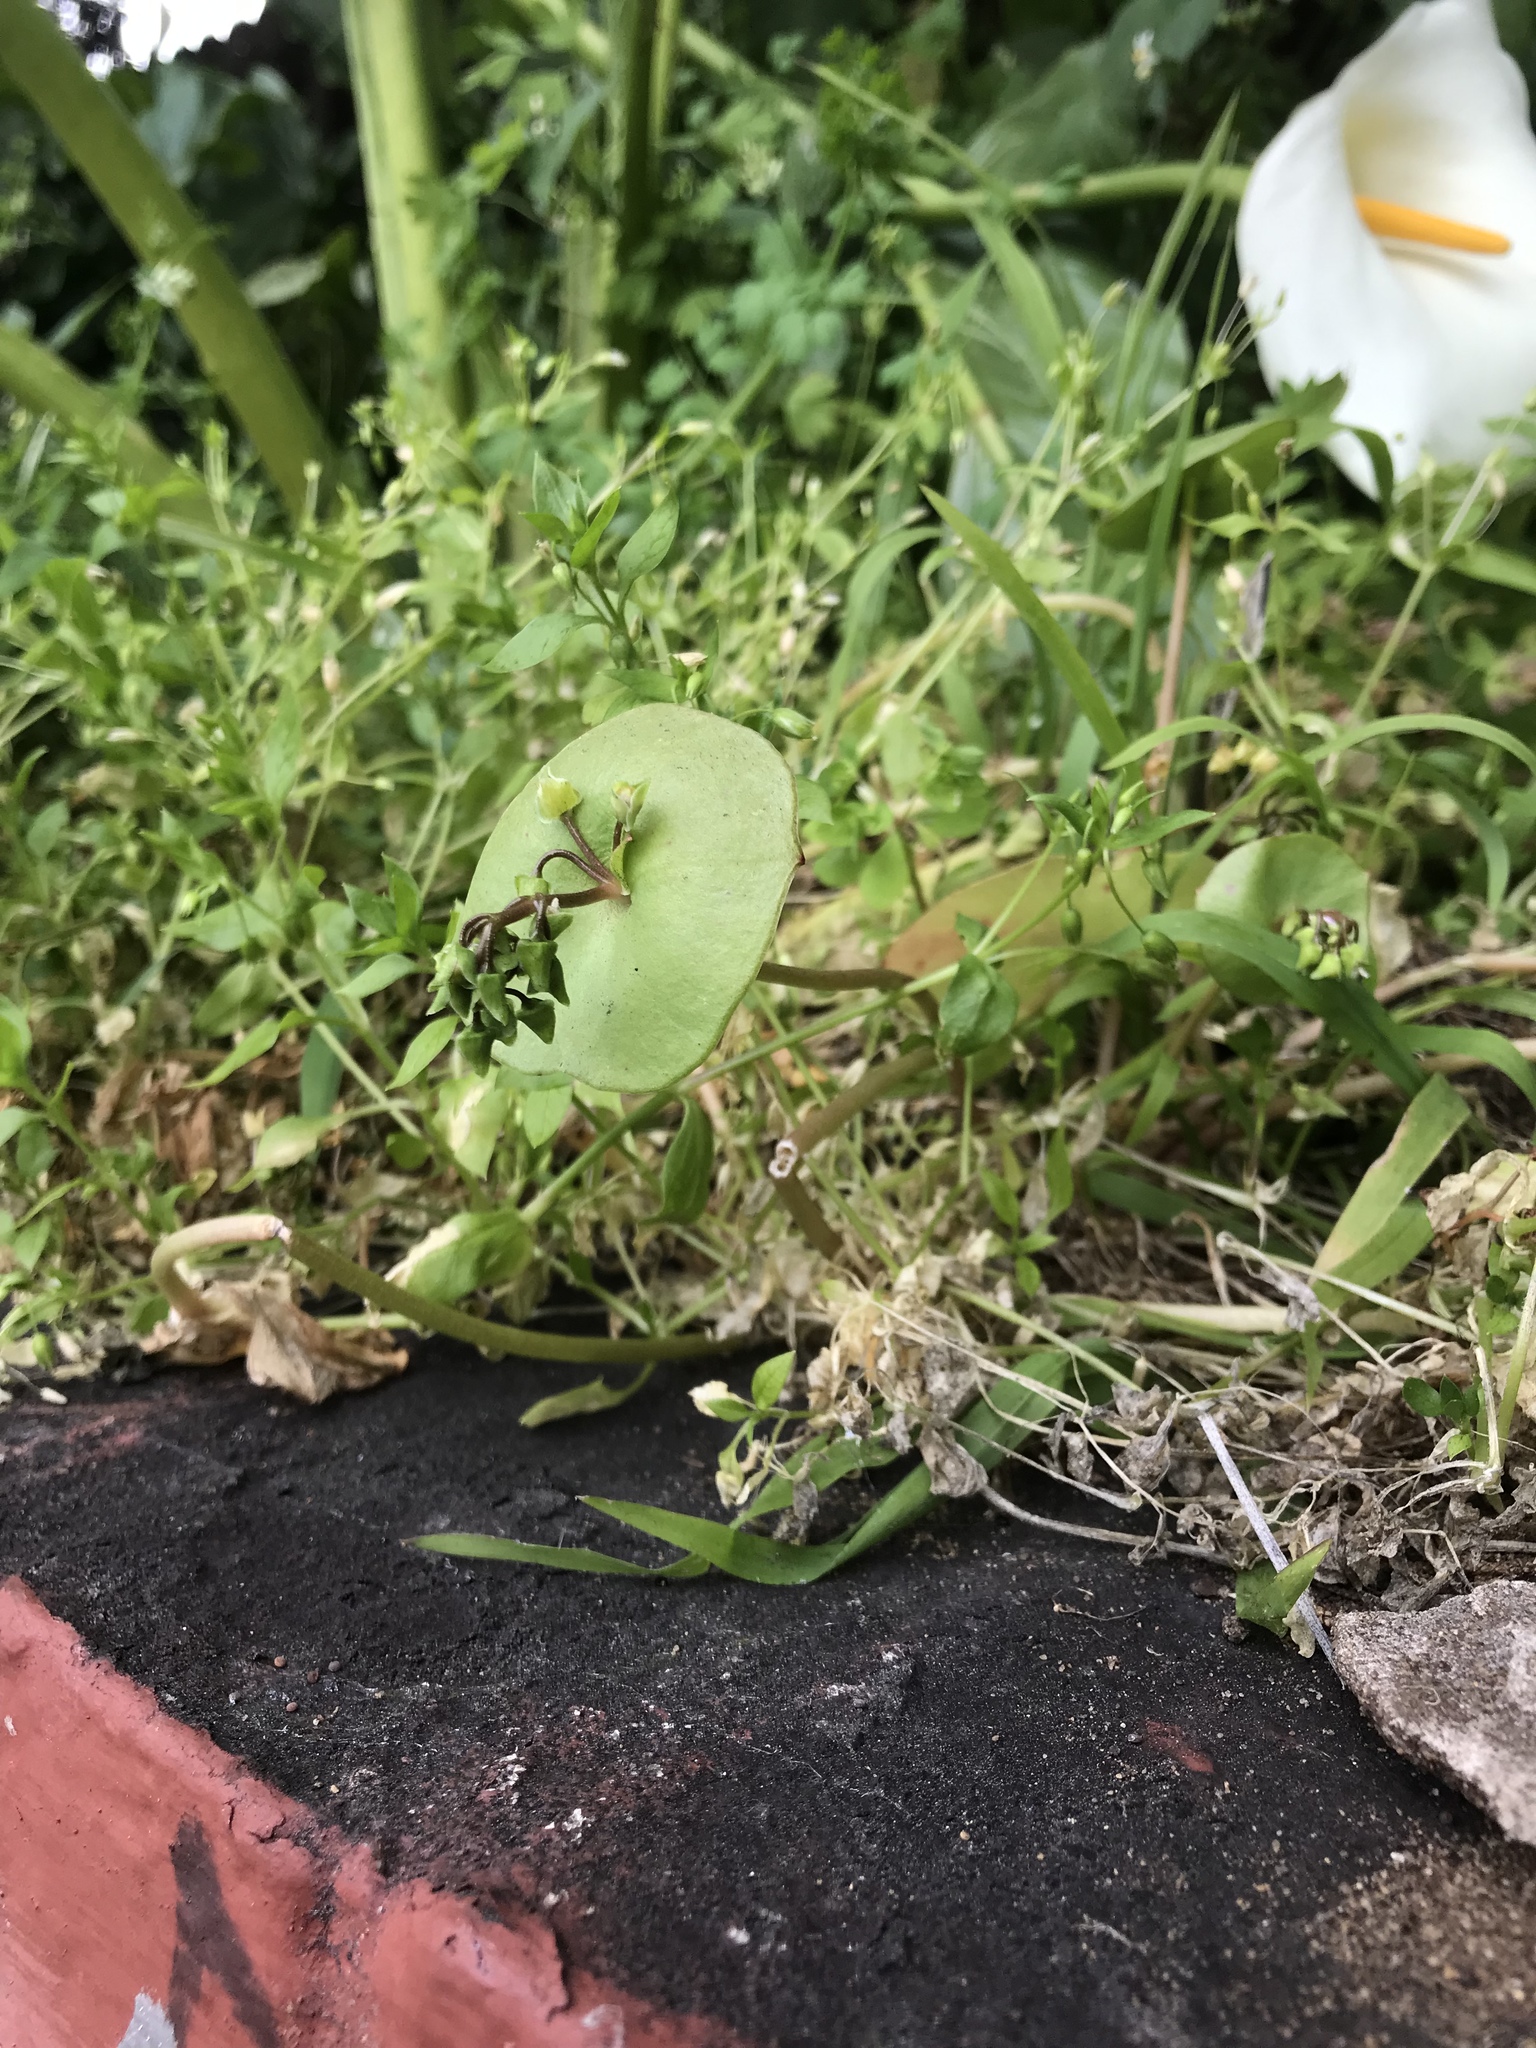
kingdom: Plantae
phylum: Tracheophyta
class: Magnoliopsida
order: Caryophyllales
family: Montiaceae
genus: Claytonia
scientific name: Claytonia perfoliata
